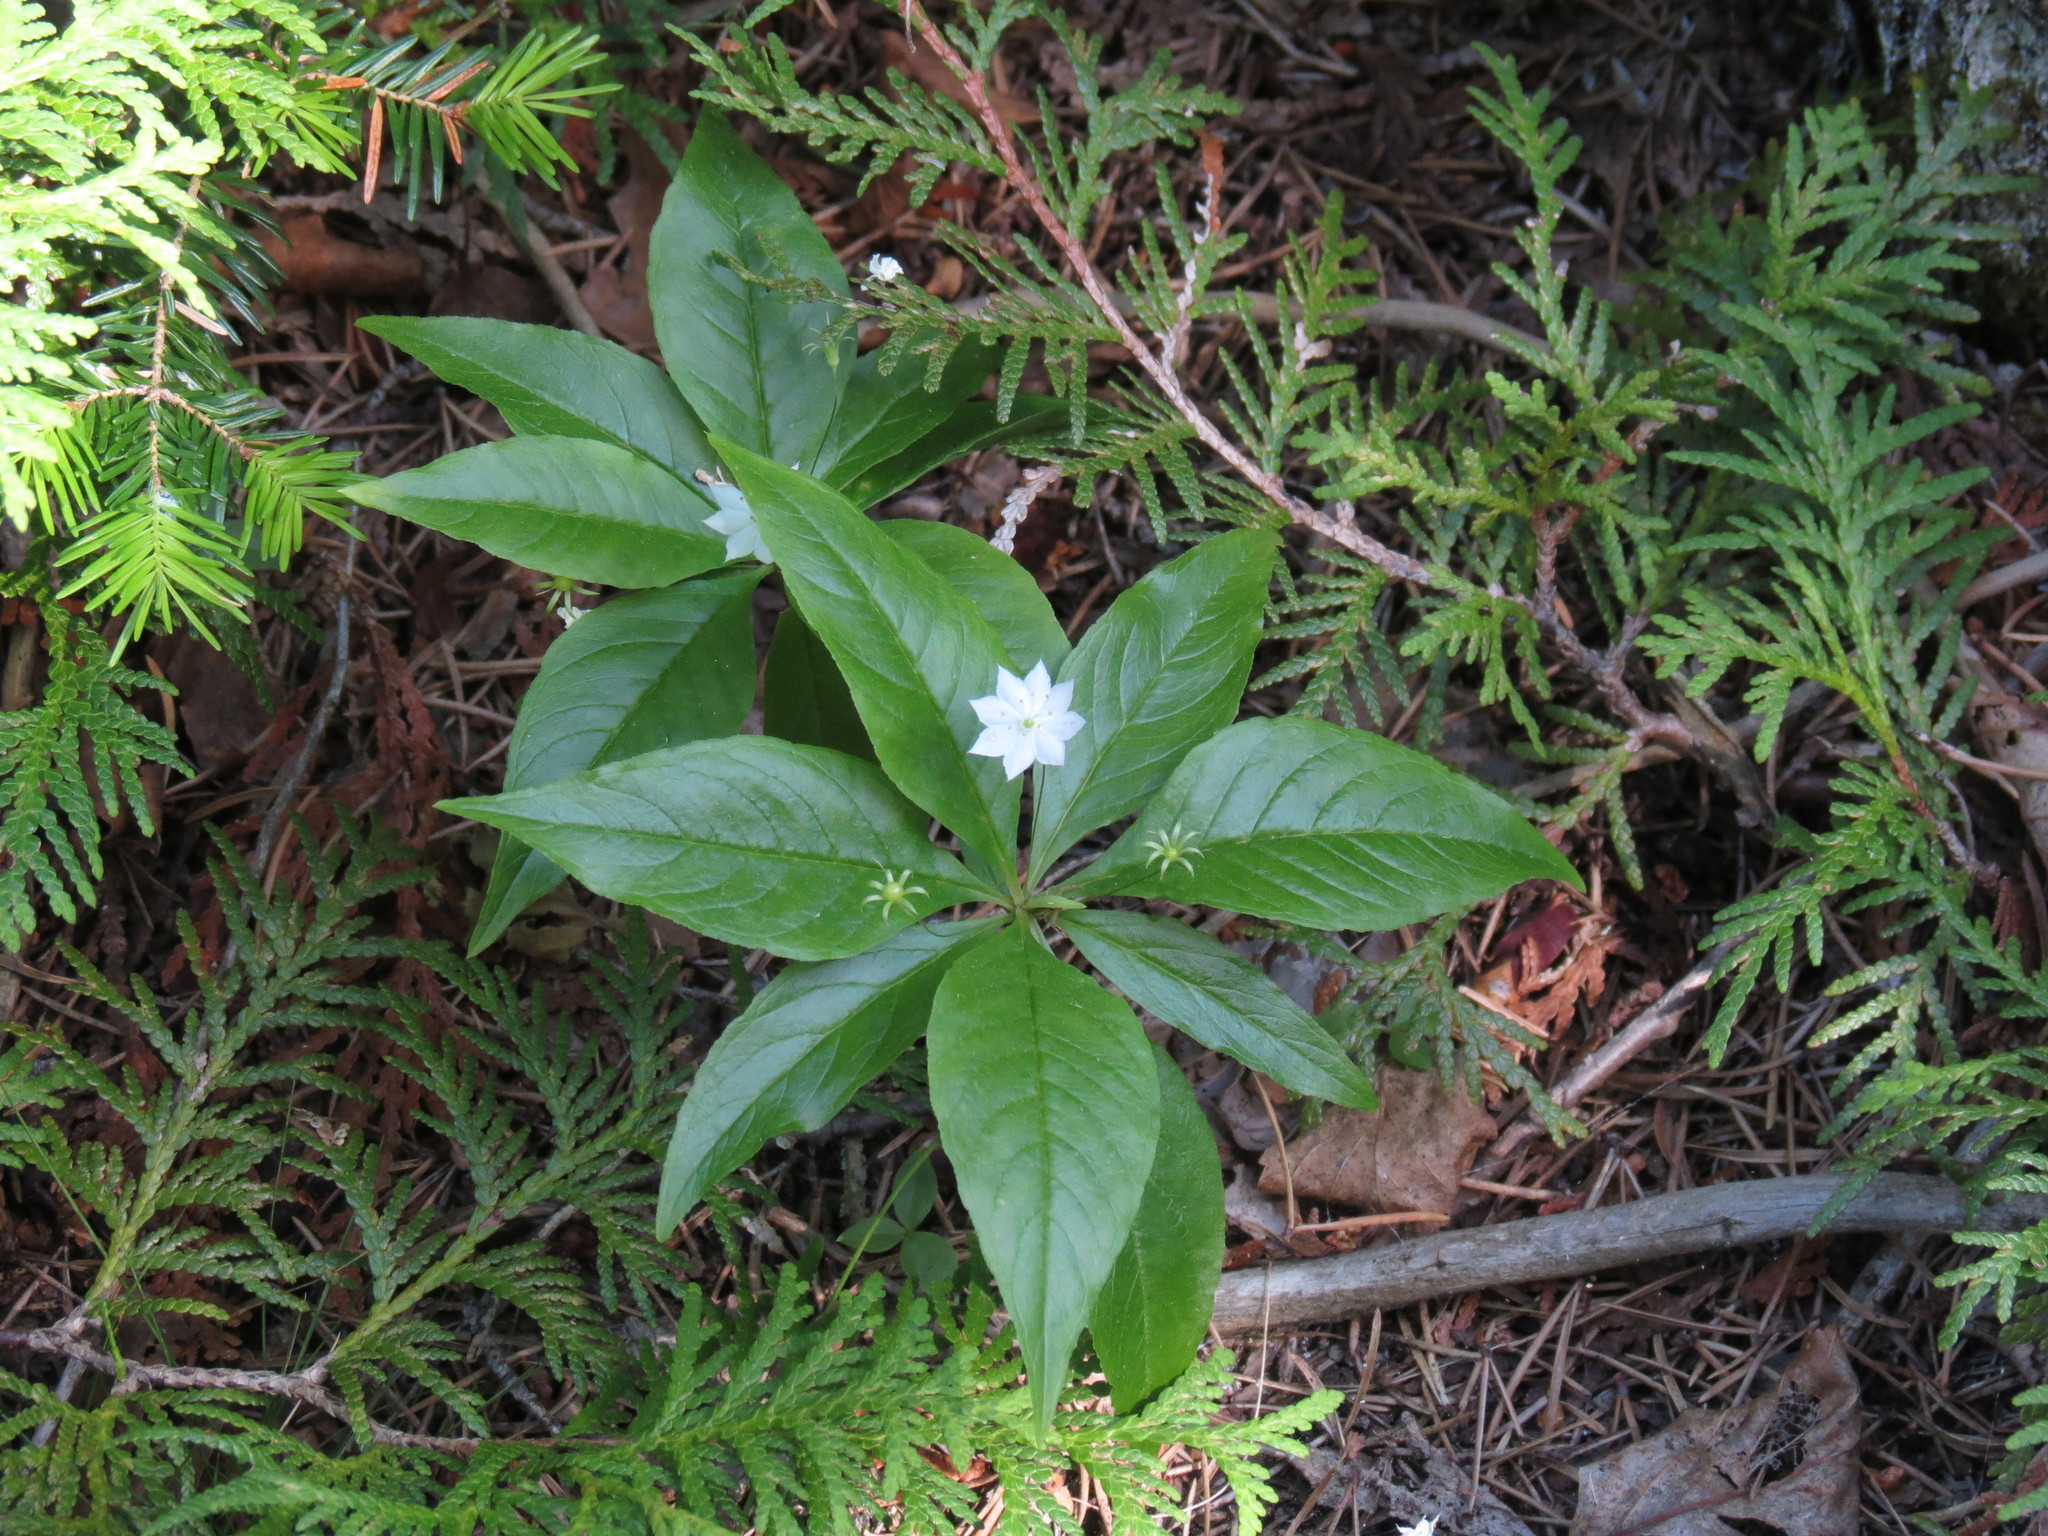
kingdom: Plantae
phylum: Tracheophyta
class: Magnoliopsida
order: Ericales
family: Primulaceae
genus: Lysimachia
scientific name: Lysimachia borealis
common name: American starflower
